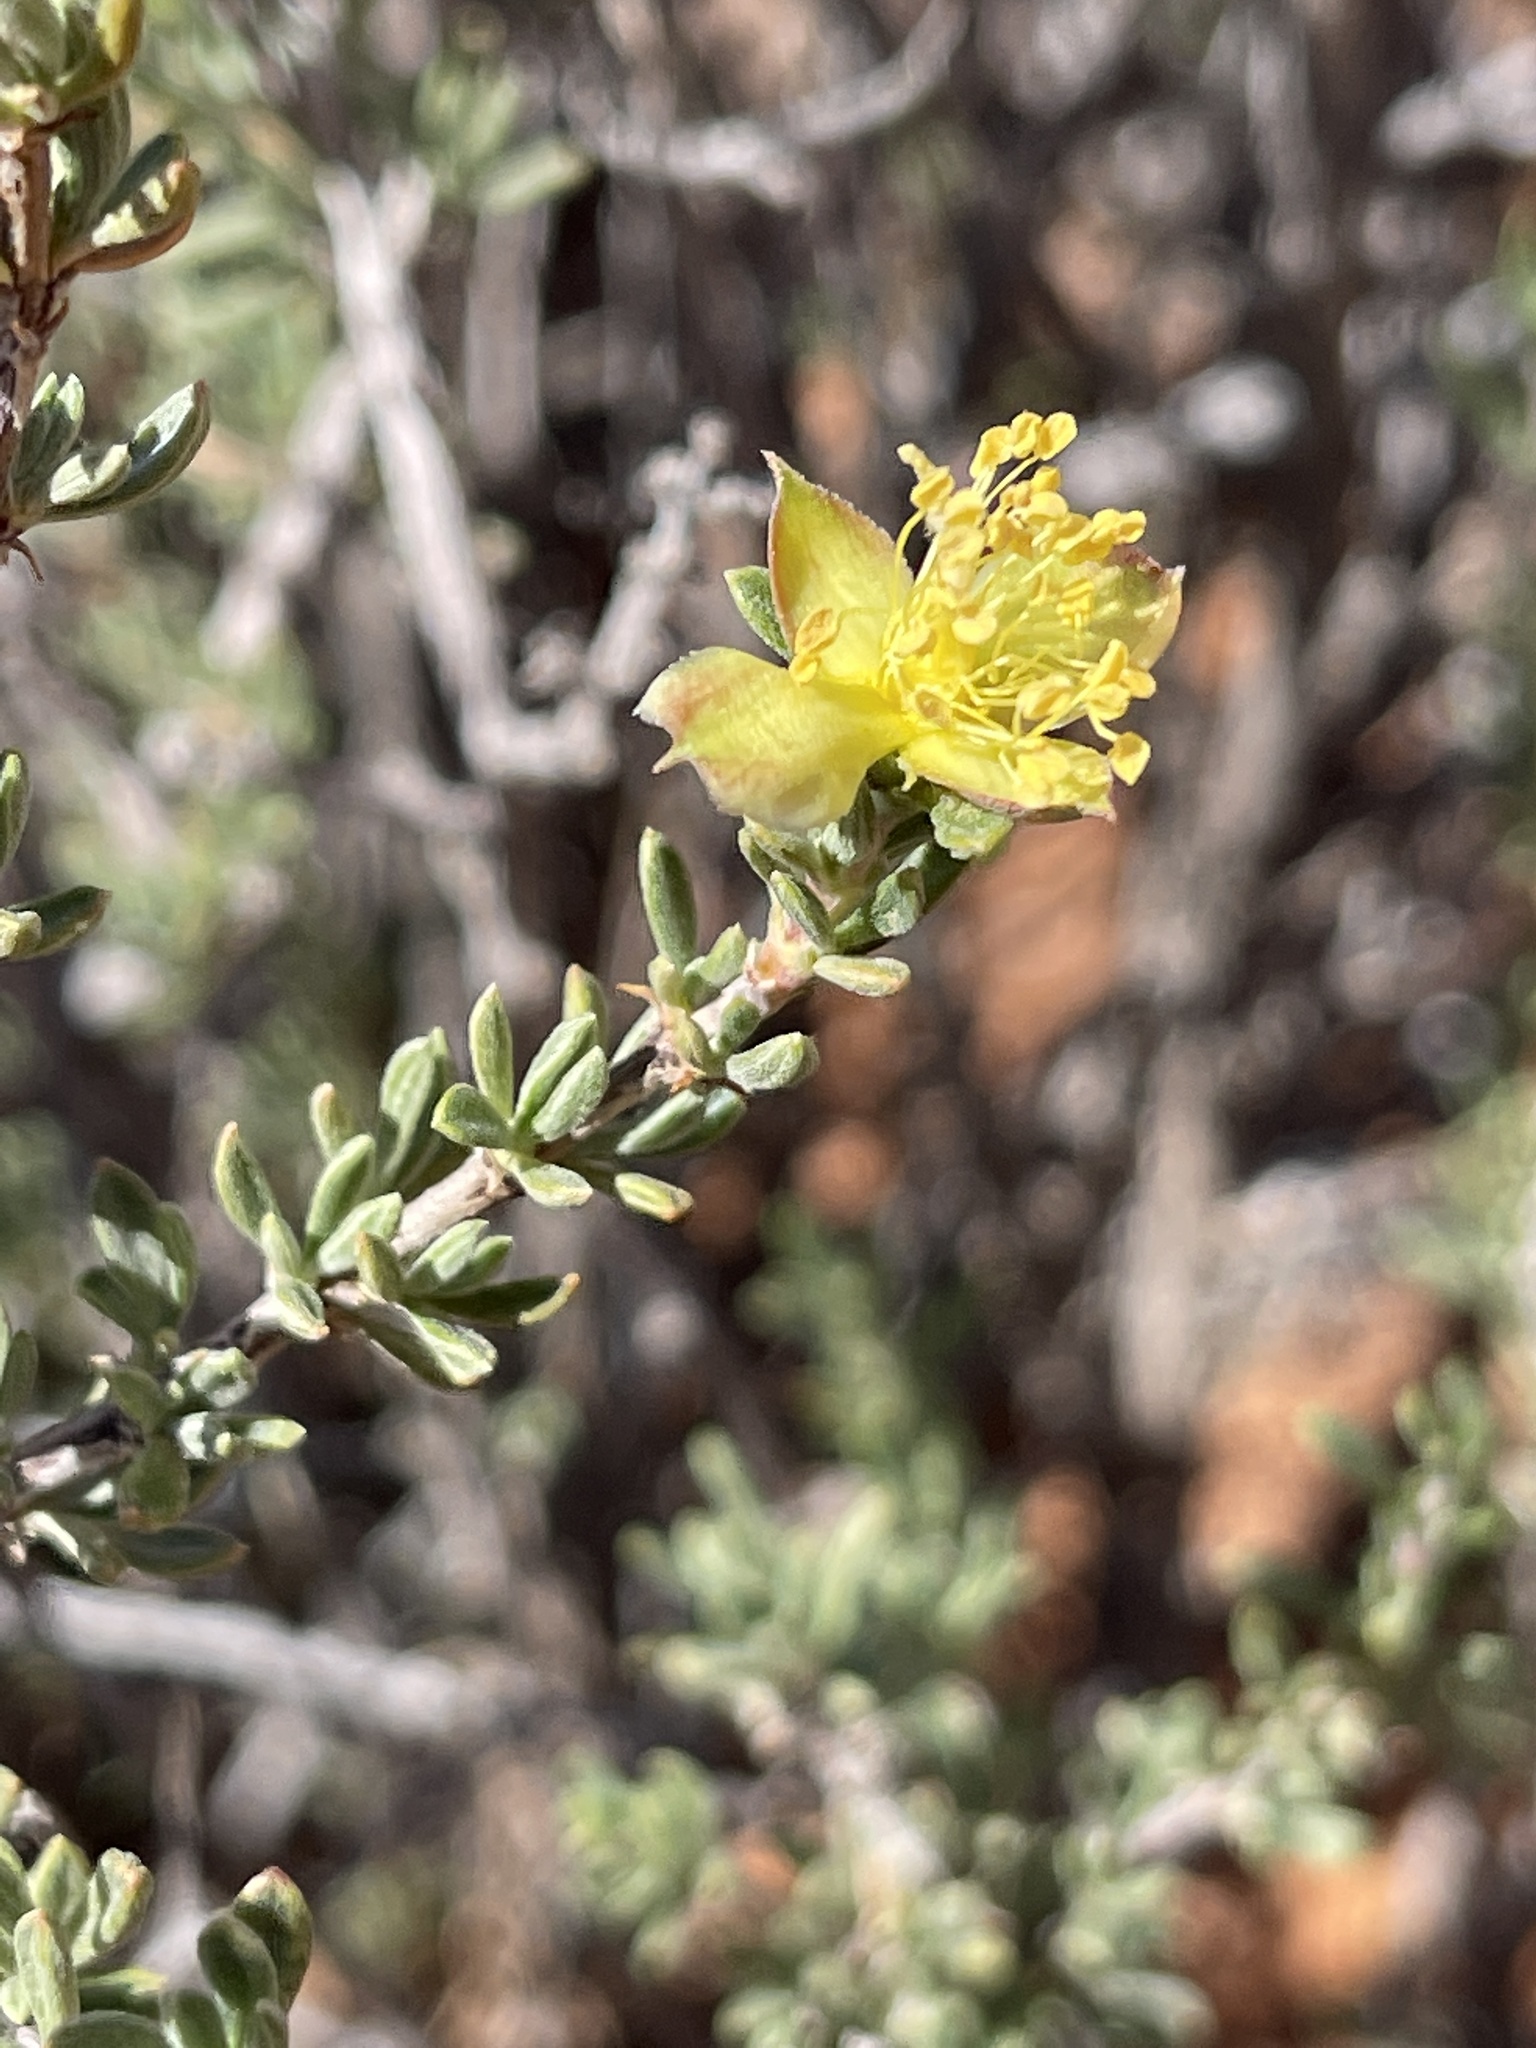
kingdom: Plantae
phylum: Tracheophyta
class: Magnoliopsida
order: Rosales
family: Rosaceae
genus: Coleogyne
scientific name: Coleogyne ramosissima
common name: Blackbrush
